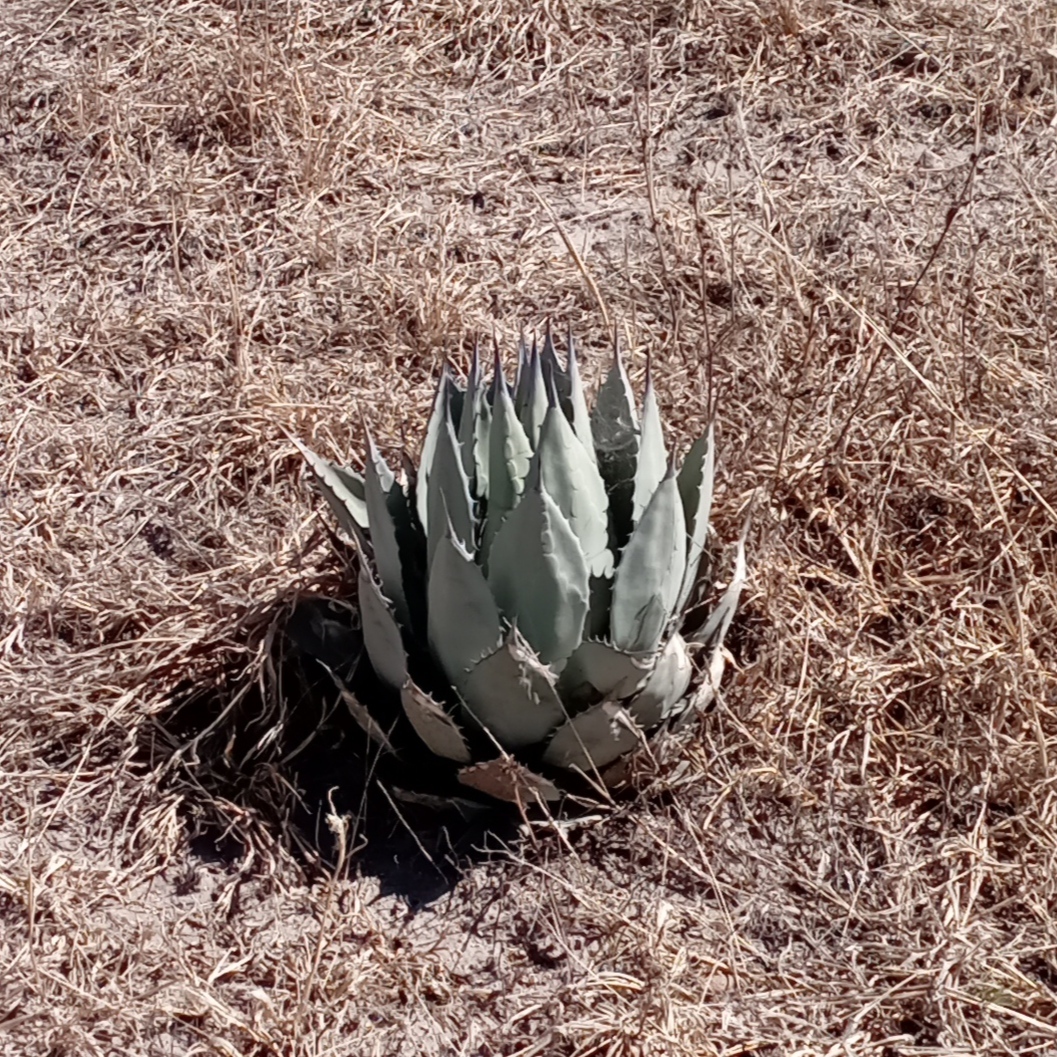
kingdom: Plantae
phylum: Tracheophyta
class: Liliopsida
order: Asparagales
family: Asparagaceae
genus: Agave
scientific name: Agave applanata
